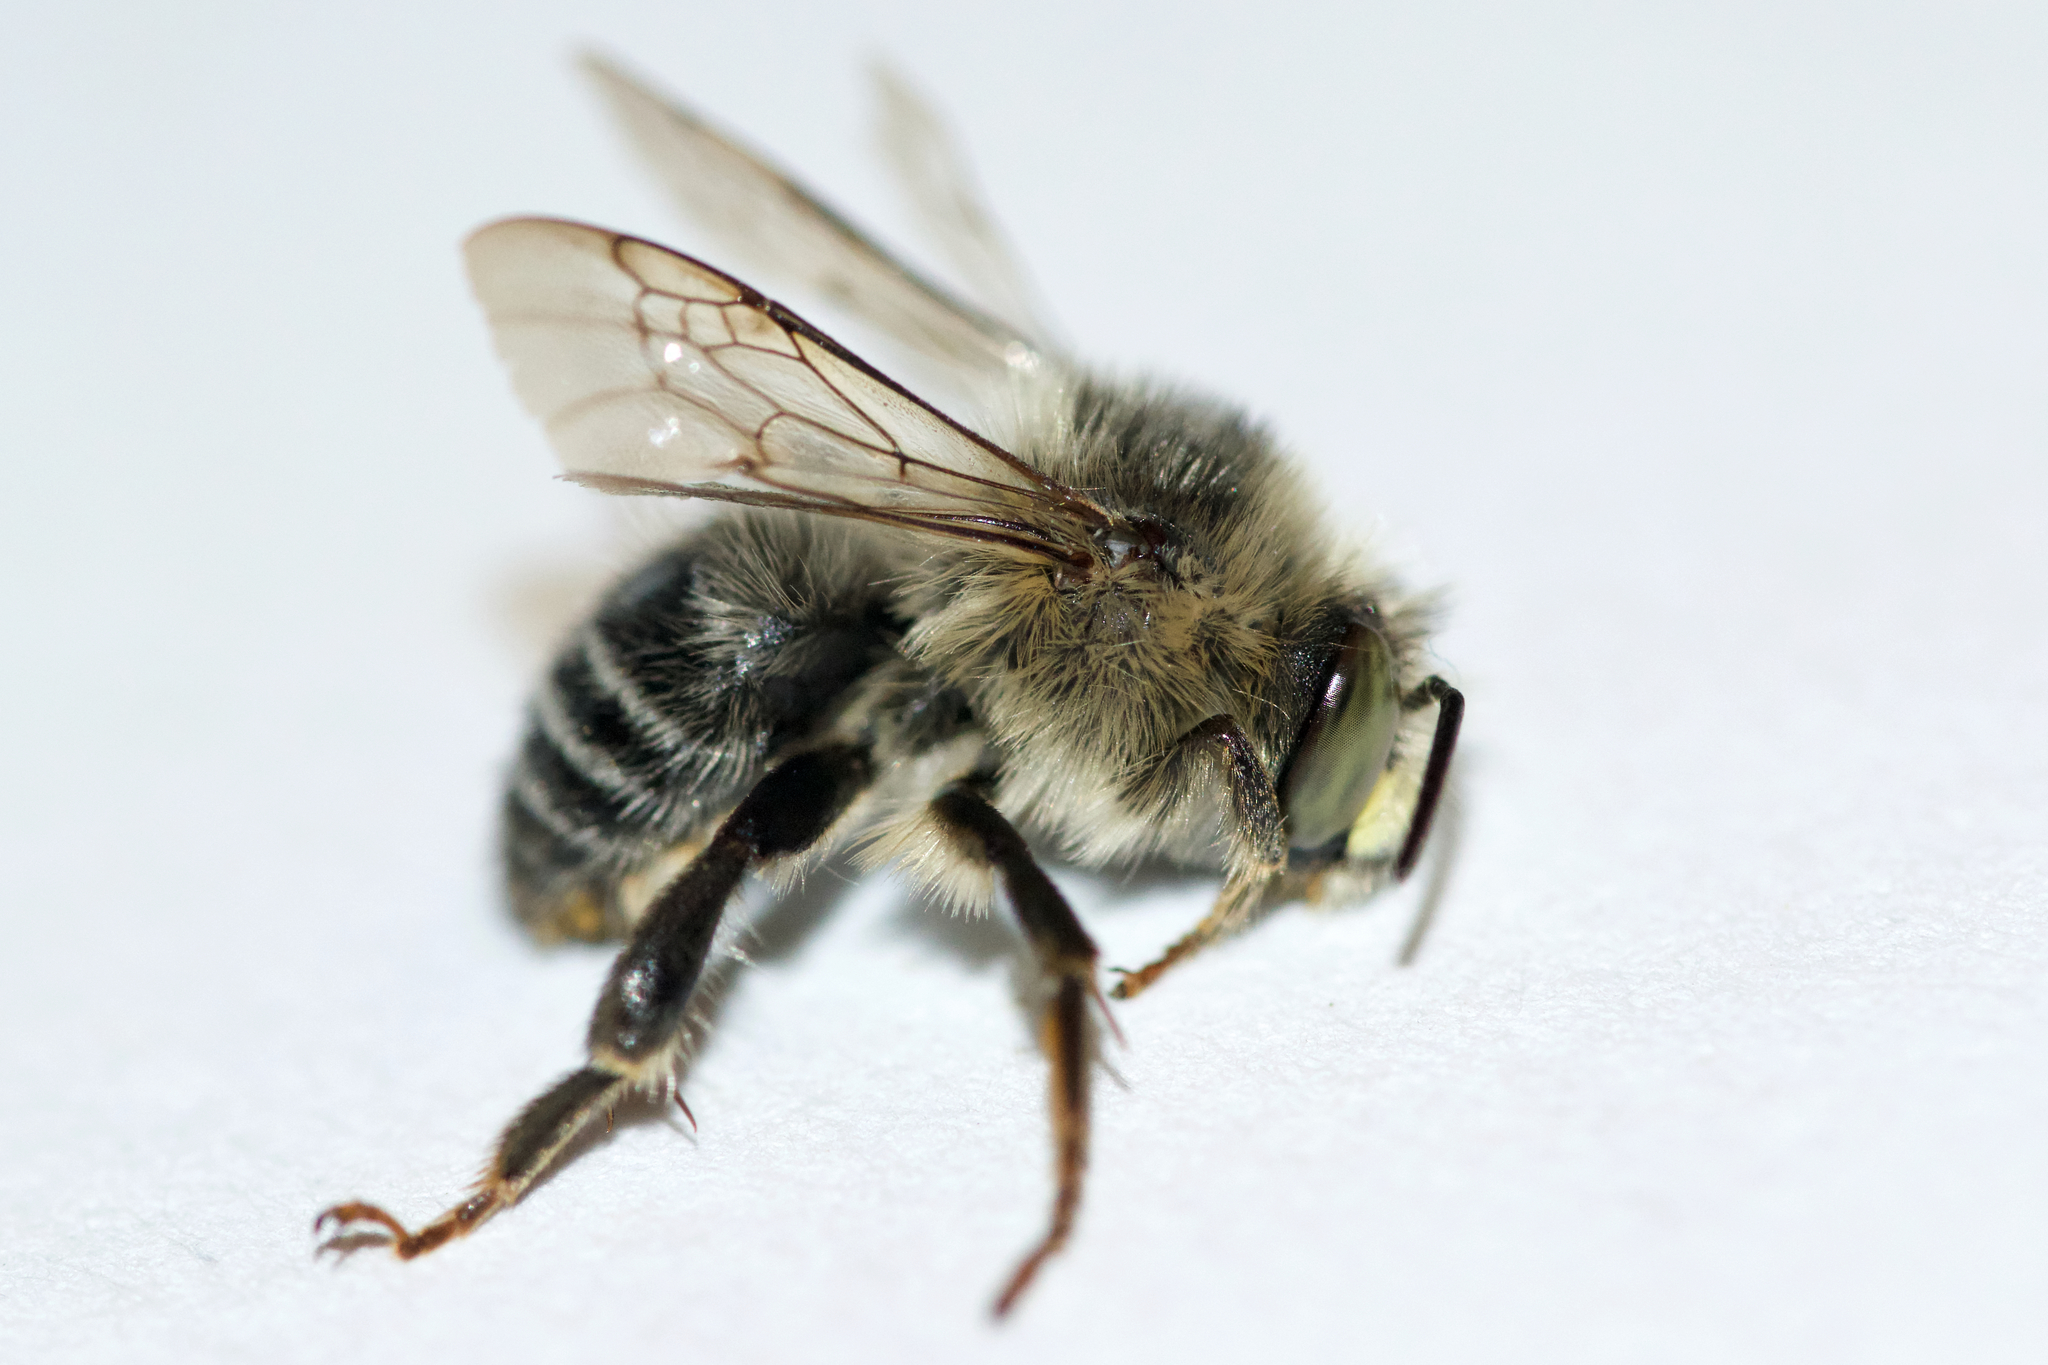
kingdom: Animalia
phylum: Arthropoda
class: Insecta
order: Hymenoptera
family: Apidae
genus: Anthophora
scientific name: Anthophora terminalis
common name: Orange-tipped wood-digger bee
